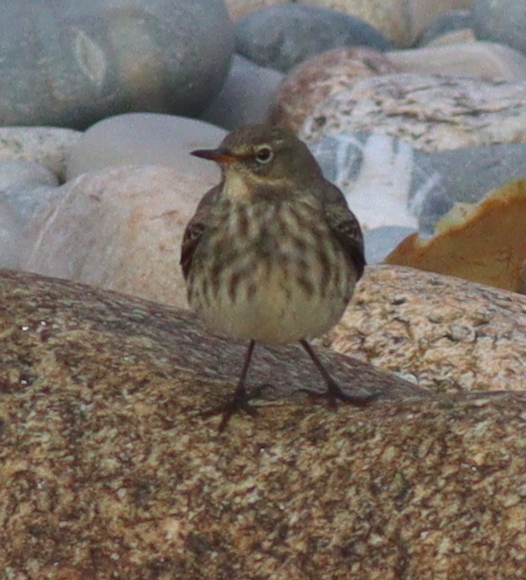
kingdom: Animalia
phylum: Chordata
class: Aves
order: Passeriformes
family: Motacillidae
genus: Anthus
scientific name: Anthus petrosus
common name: Eurasian rock pipit
